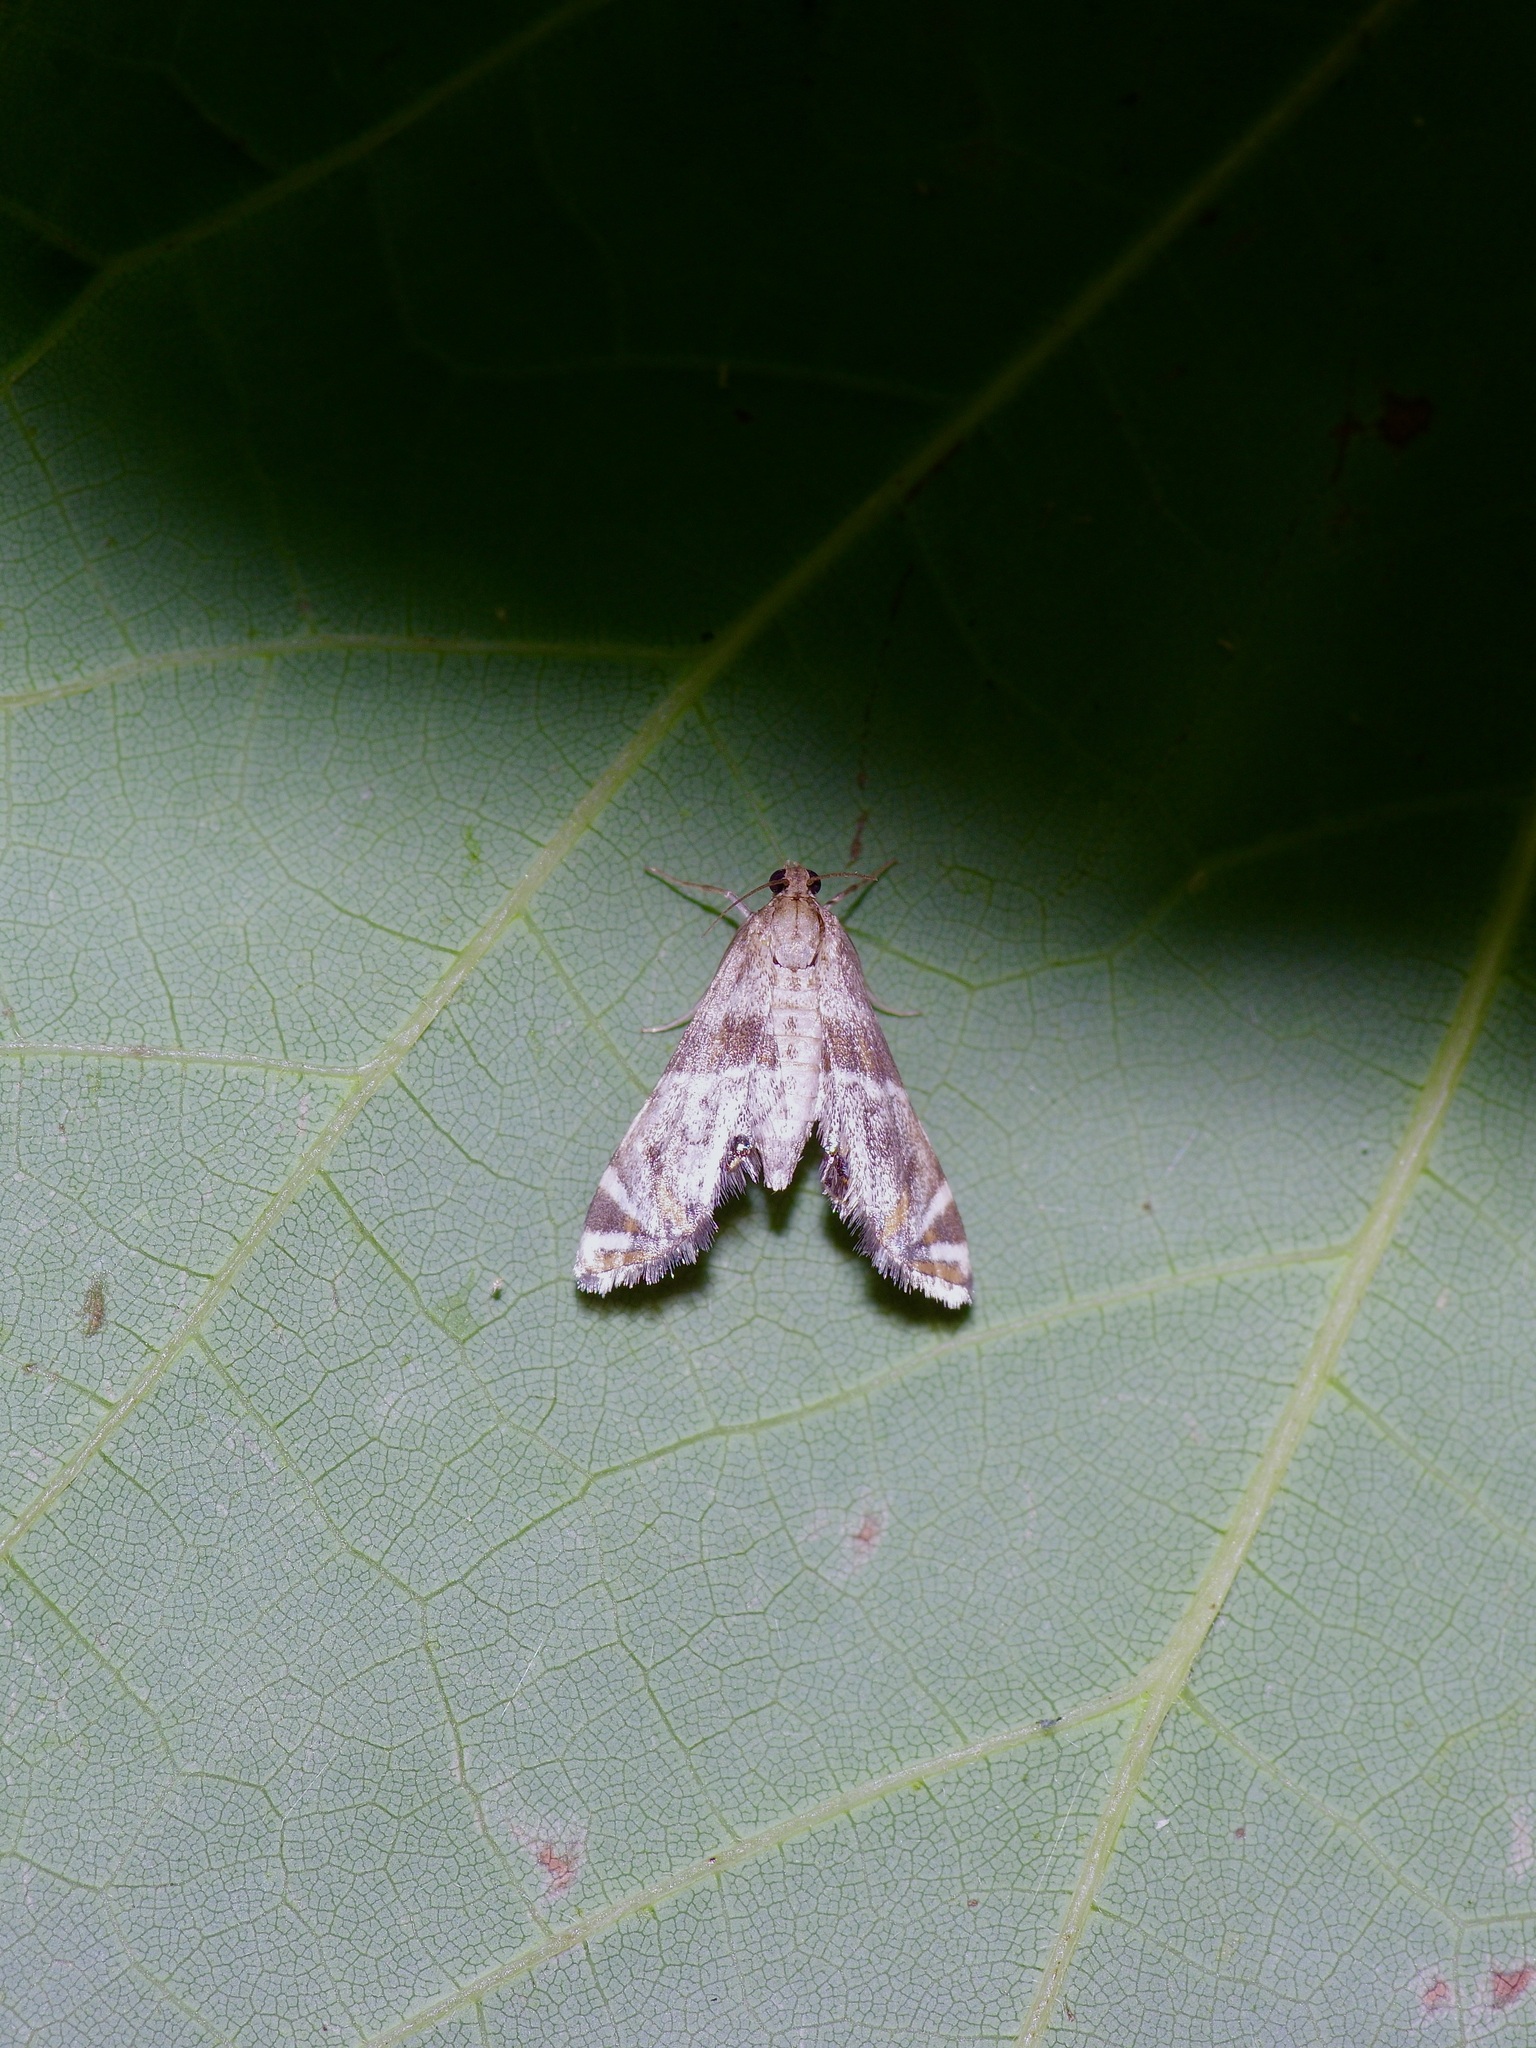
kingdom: Animalia
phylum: Arthropoda
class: Insecta
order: Lepidoptera
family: Crambidae
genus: Petrophila
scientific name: Petrophila jaliscalis
